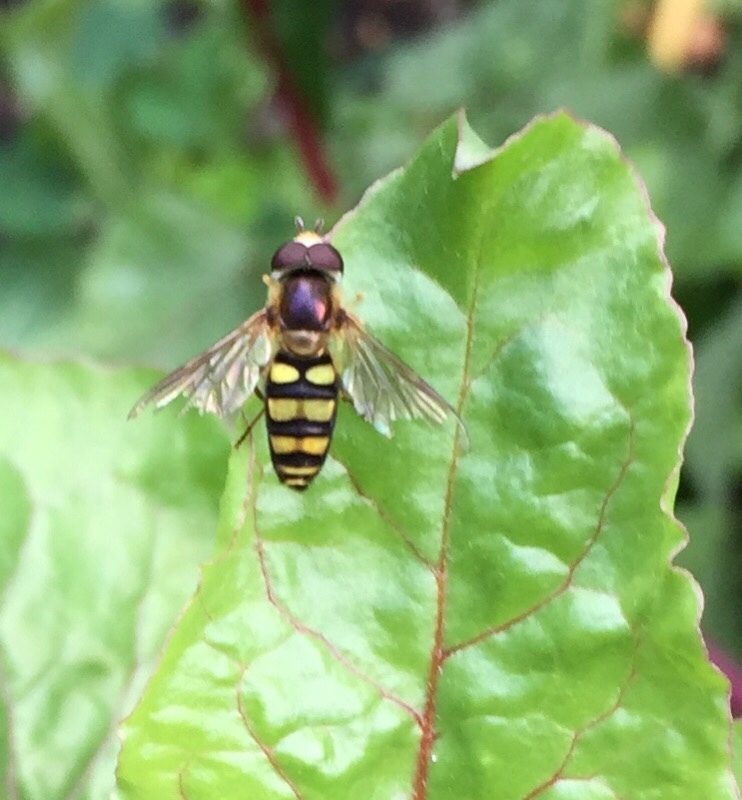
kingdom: Animalia
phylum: Arthropoda
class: Insecta
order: Diptera
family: Syrphidae
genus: Eupeodes
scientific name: Eupeodes
